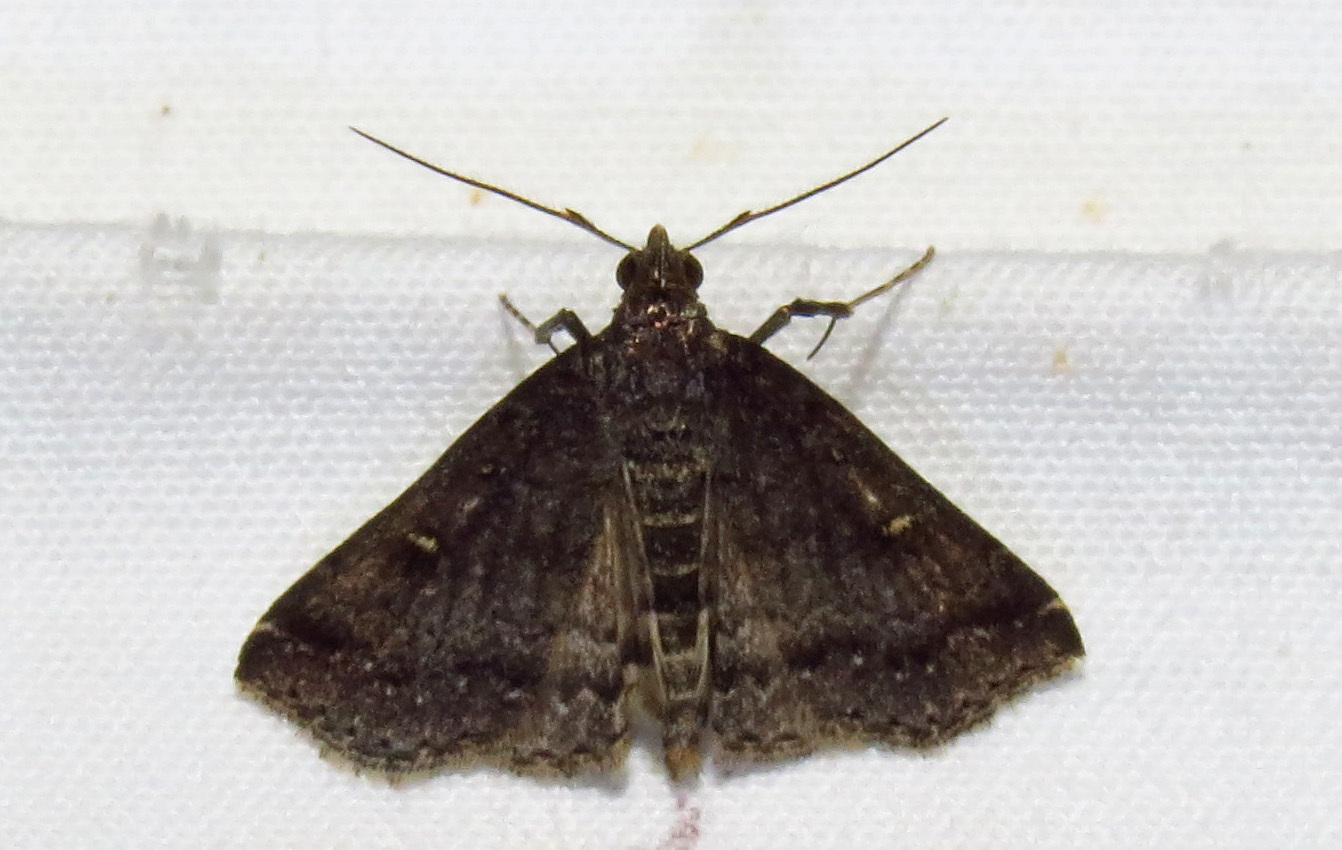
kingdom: Animalia
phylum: Arthropoda
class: Insecta
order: Lepidoptera
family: Erebidae
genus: Tetanolita
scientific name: Tetanolita mynesalis
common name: Smoky tetanolita moth
